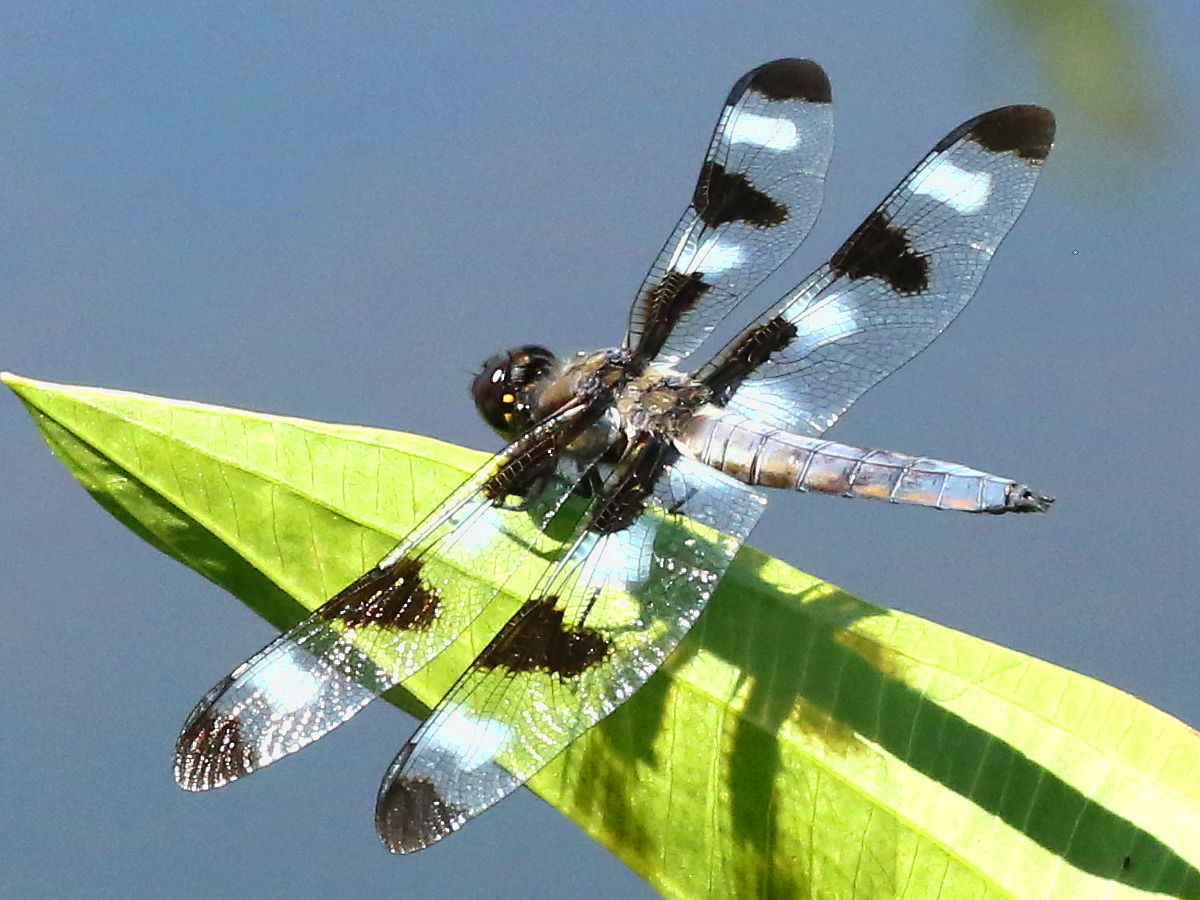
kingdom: Animalia
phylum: Arthropoda
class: Insecta
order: Odonata
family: Libellulidae
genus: Libellula
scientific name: Libellula pulchella
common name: Twelve-spotted skimmer
